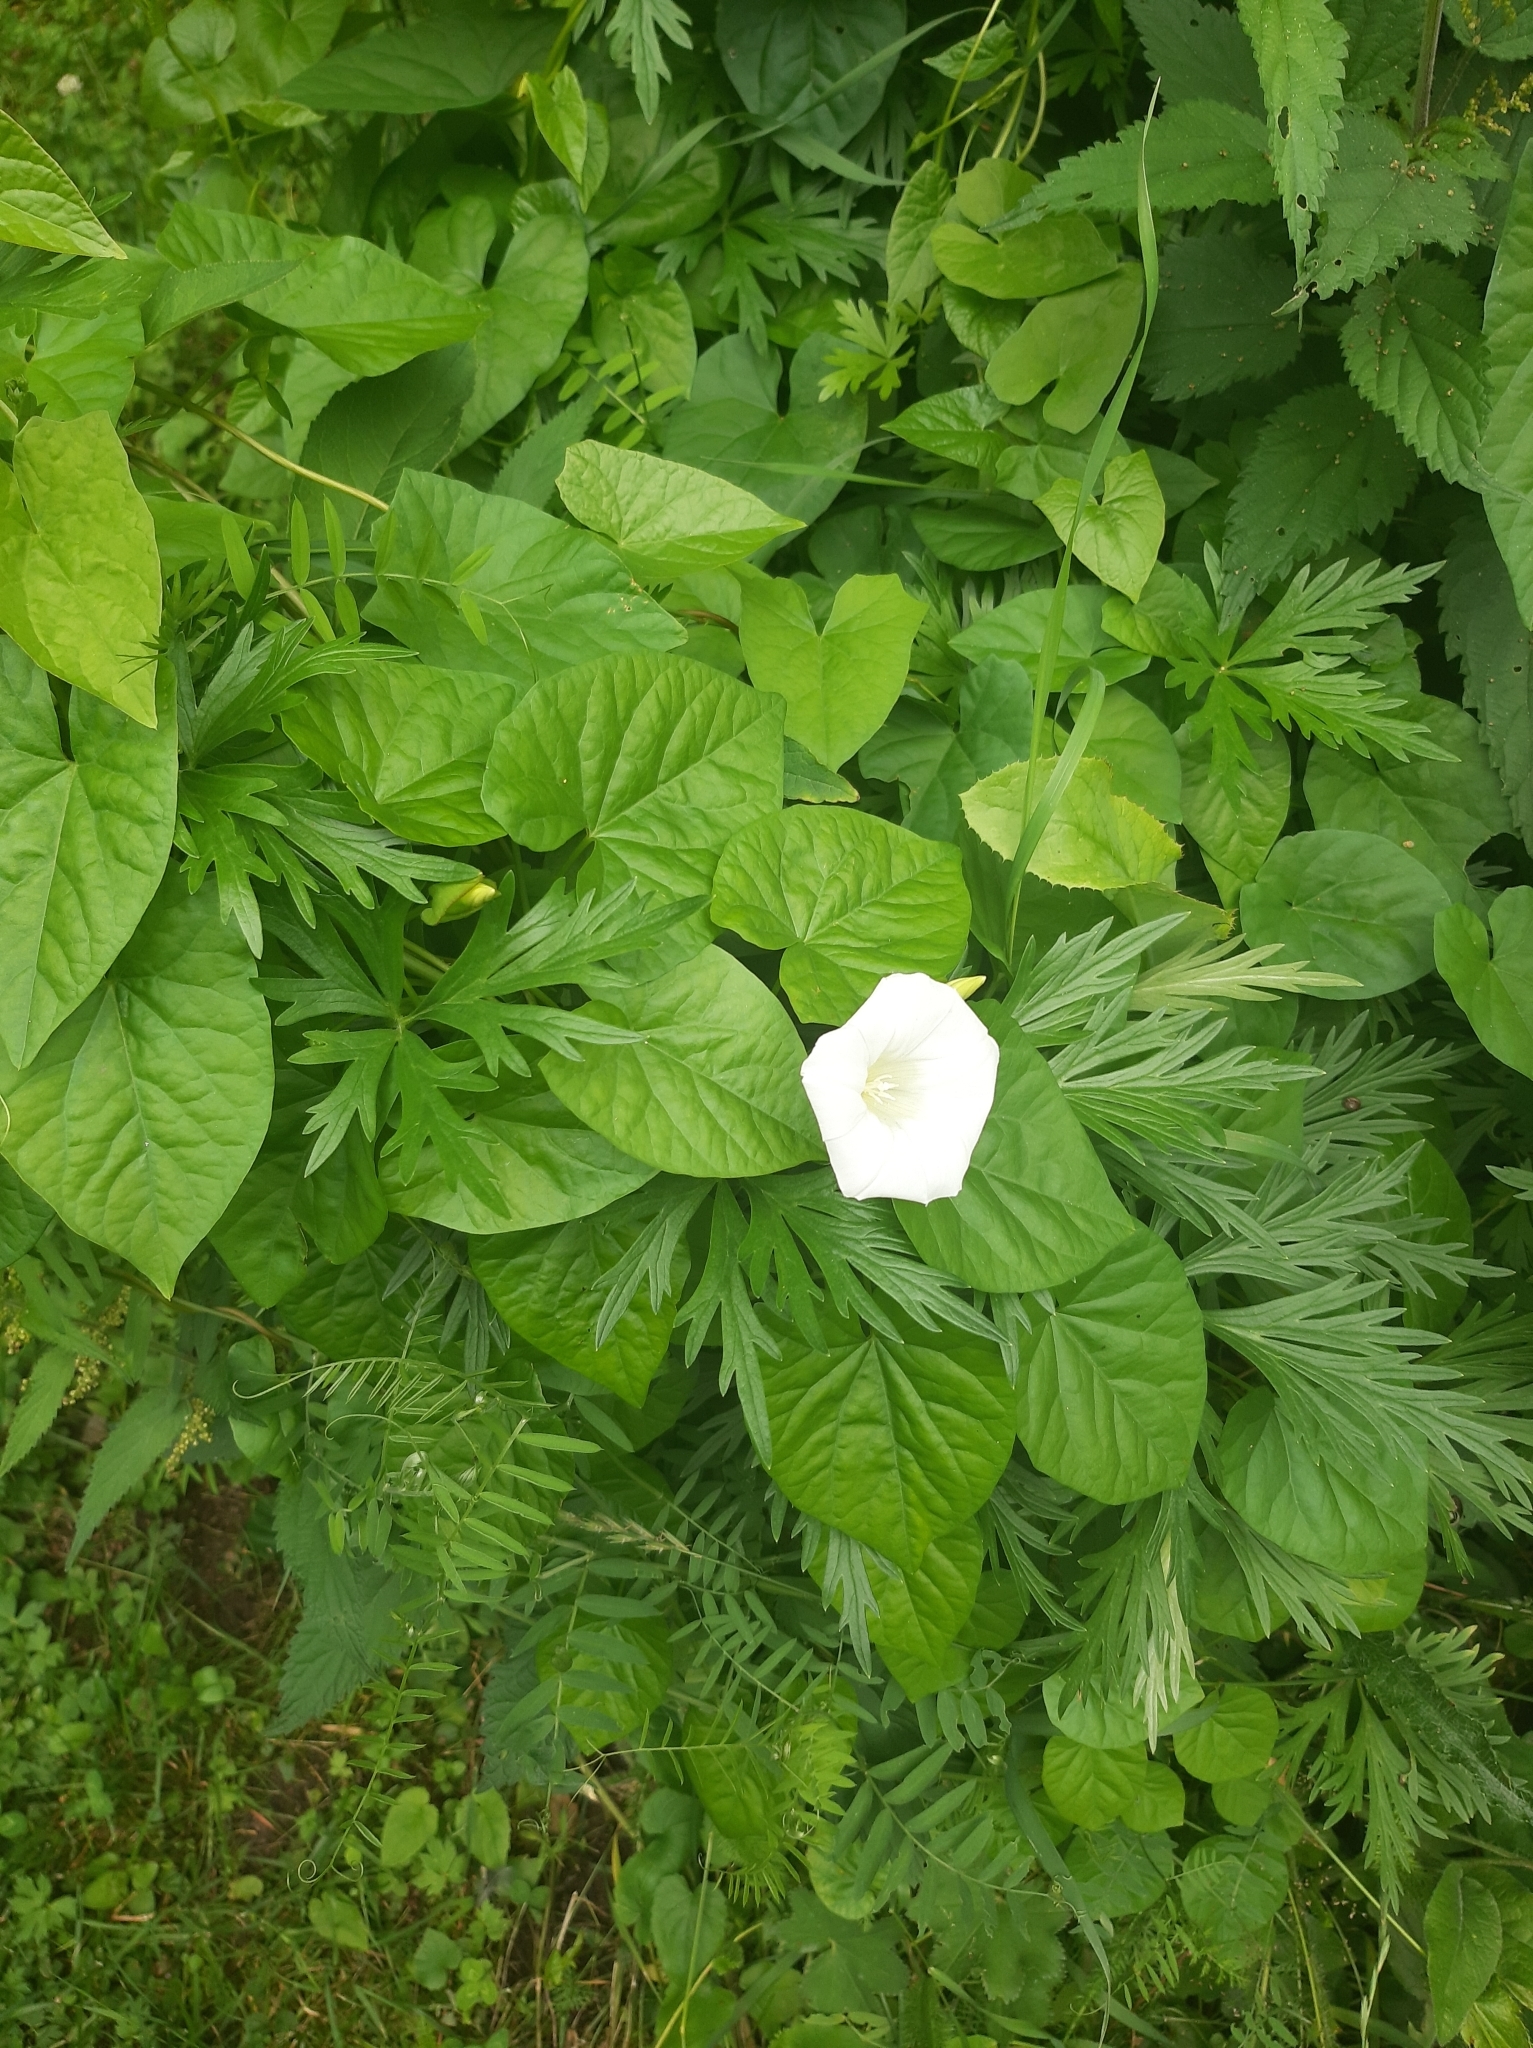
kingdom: Plantae
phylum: Tracheophyta
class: Magnoliopsida
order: Solanales
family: Convolvulaceae
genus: Calystegia
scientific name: Calystegia sepium
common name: Hedge bindweed
